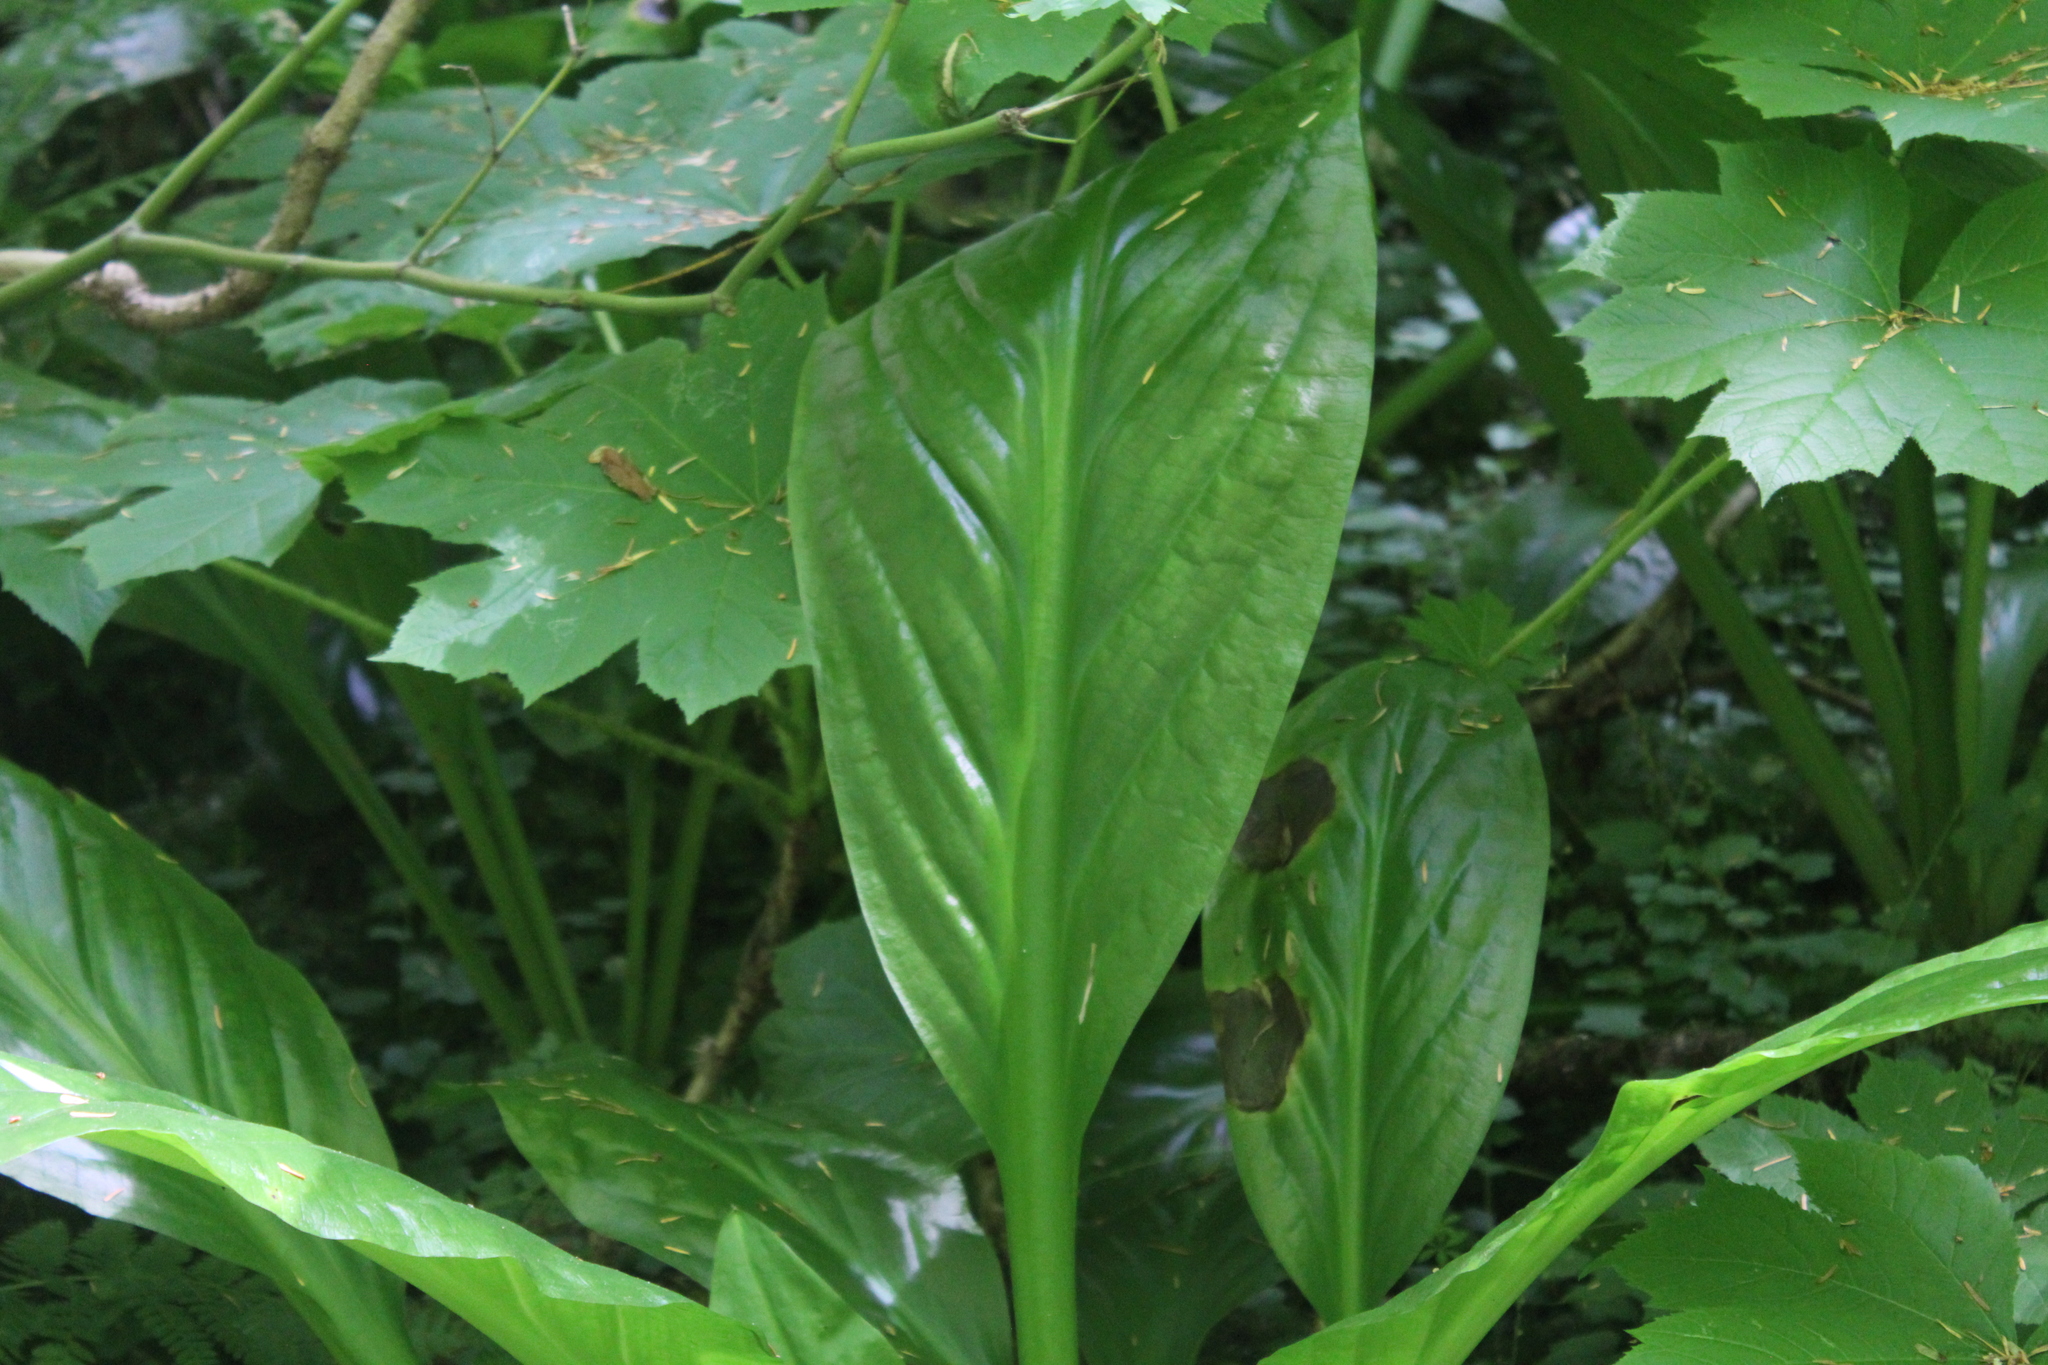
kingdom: Plantae
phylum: Tracheophyta
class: Liliopsida
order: Alismatales
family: Araceae
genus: Lysichiton
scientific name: Lysichiton americanus
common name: American skunk cabbage
